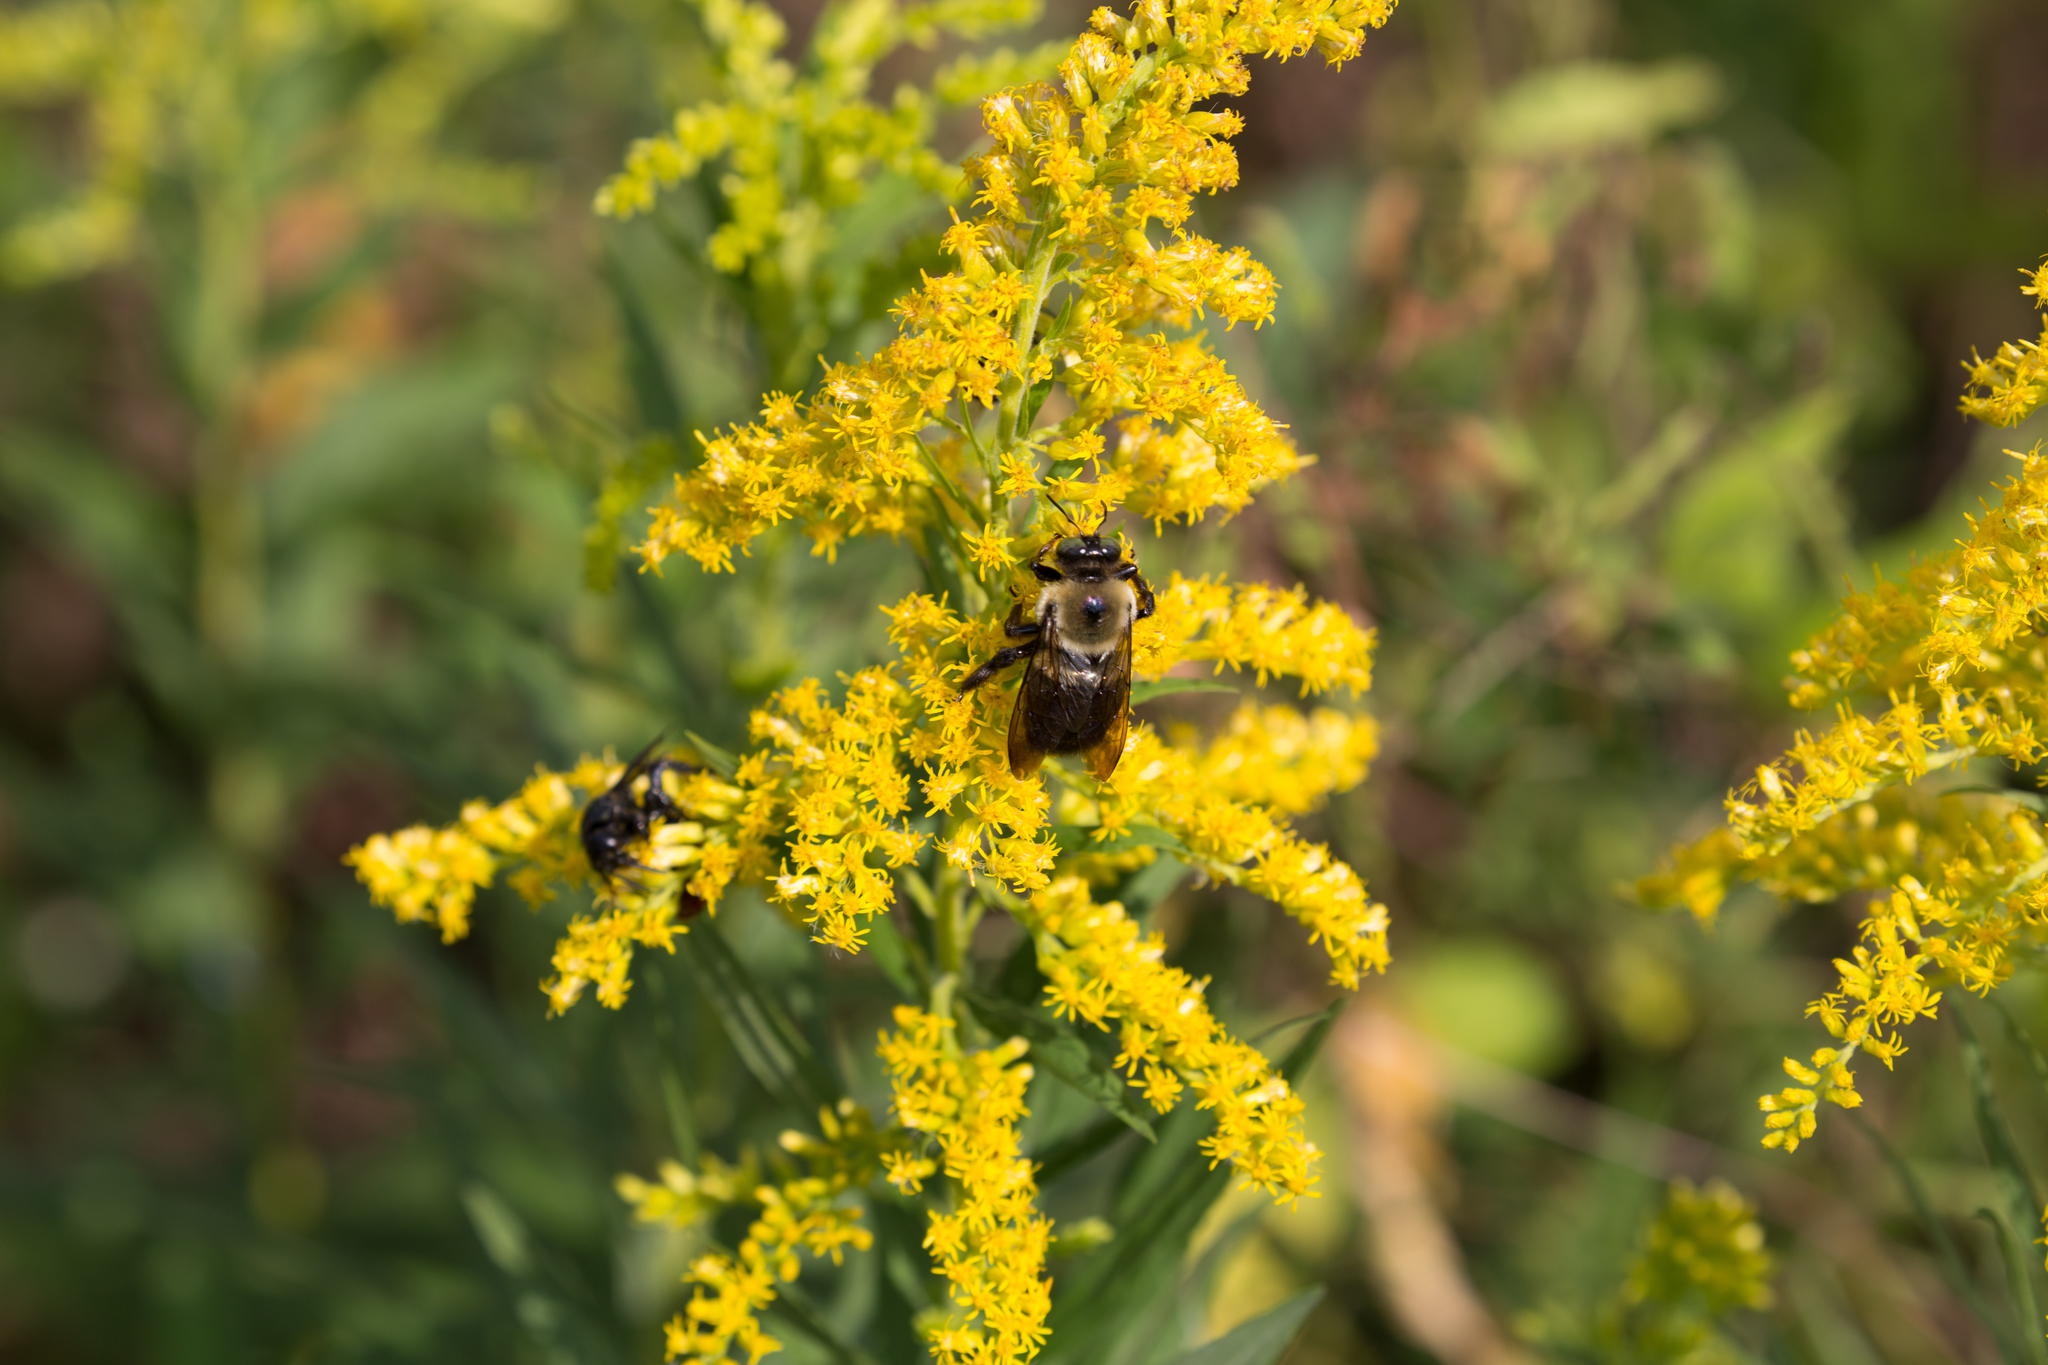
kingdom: Animalia
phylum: Arthropoda
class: Insecta
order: Hymenoptera
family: Apidae
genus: Xylocopa
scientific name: Xylocopa virginica
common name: Carpenter bee
